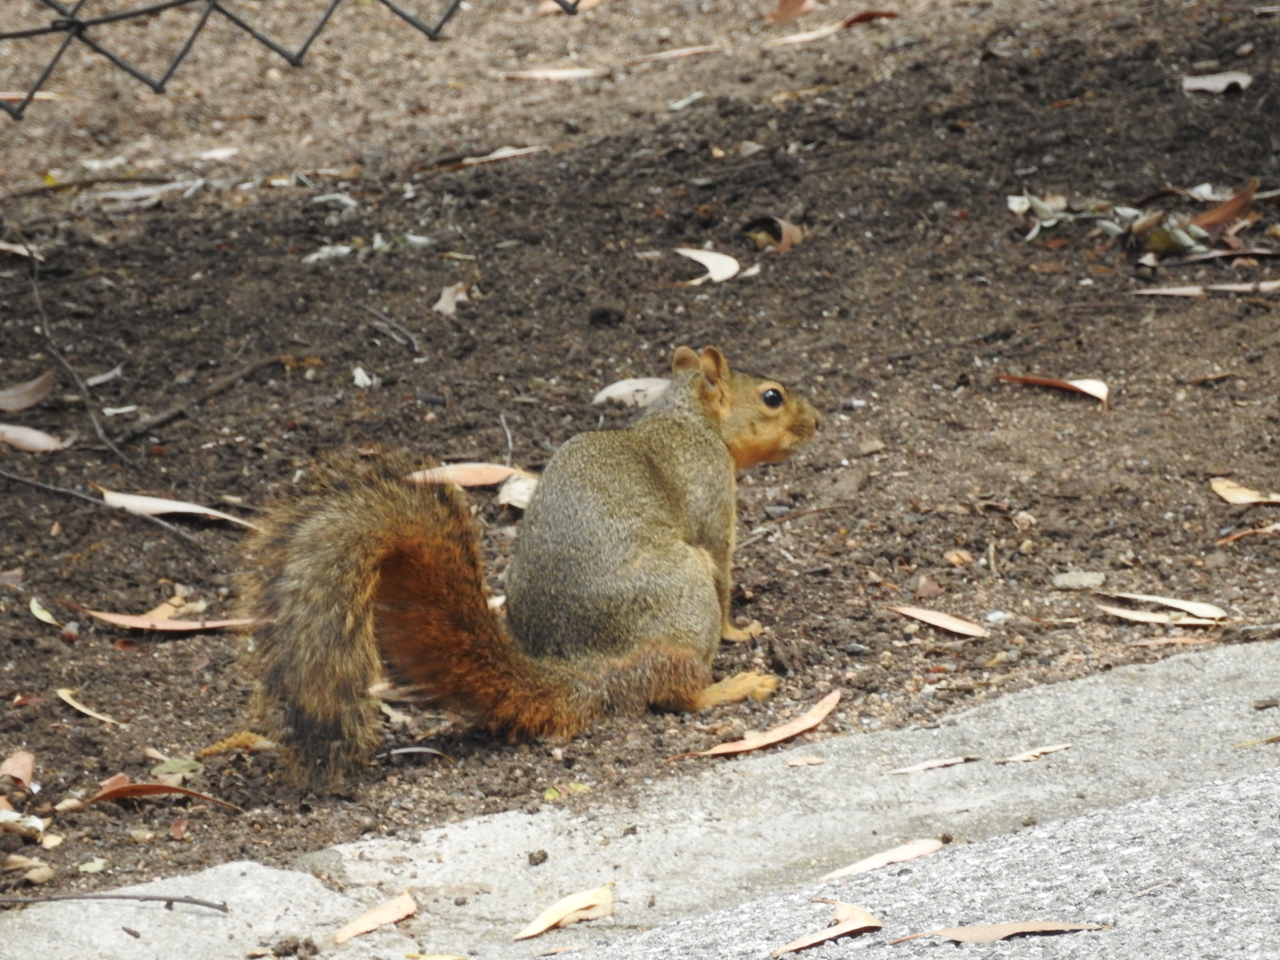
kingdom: Animalia
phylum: Chordata
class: Mammalia
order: Rodentia
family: Sciuridae
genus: Sciurus
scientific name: Sciurus niger
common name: Fox squirrel
